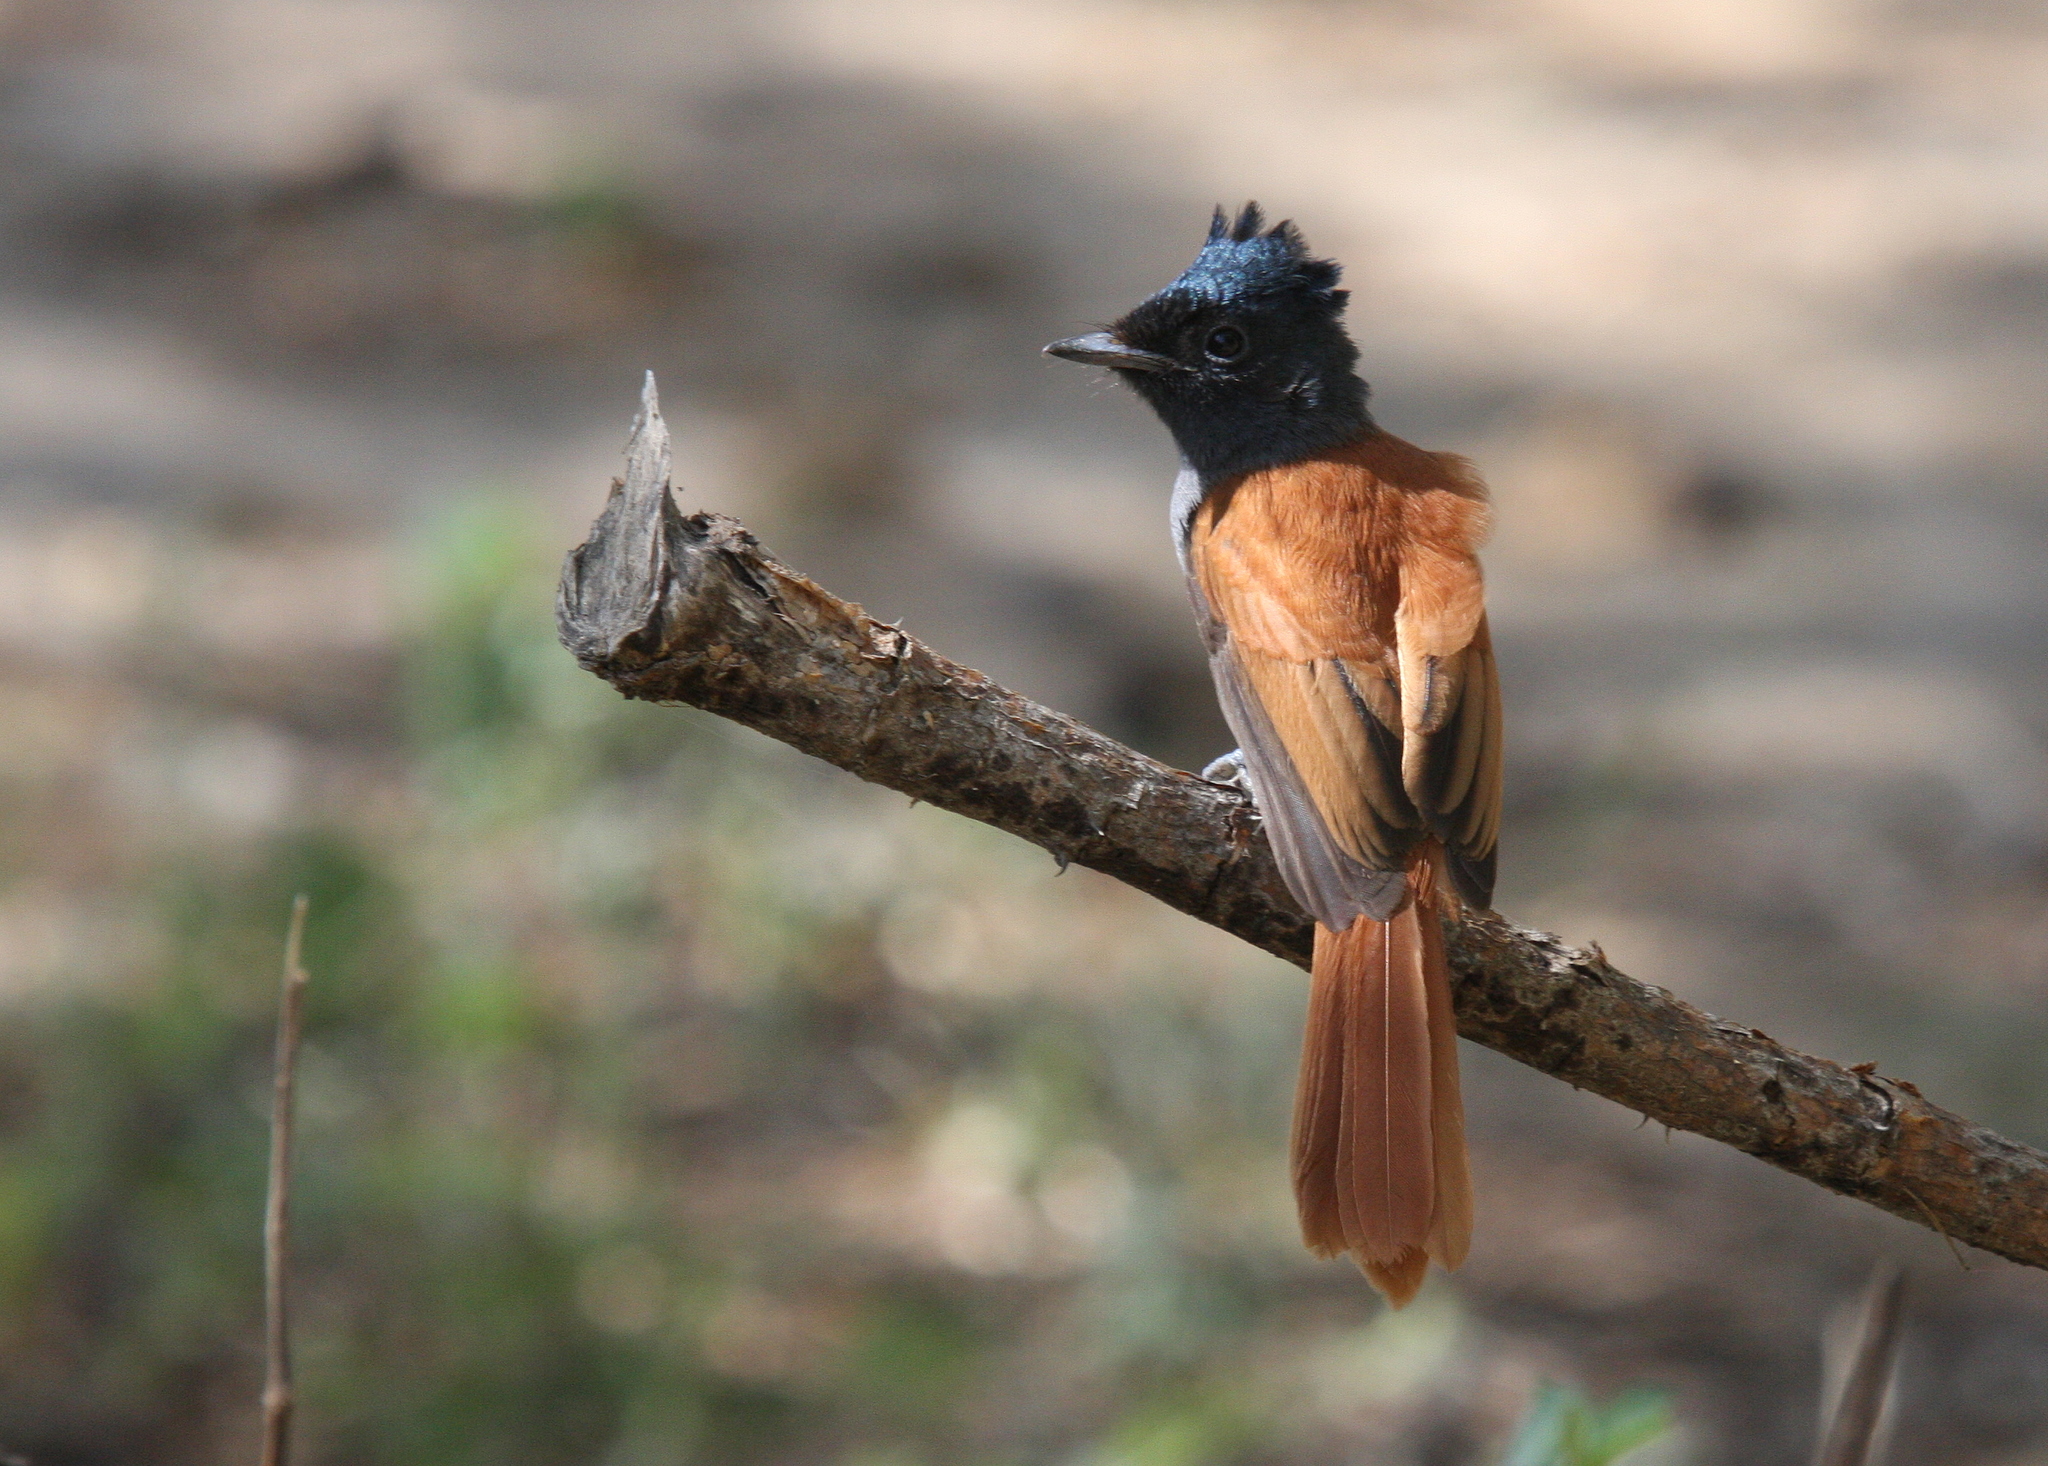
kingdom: Animalia
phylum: Chordata
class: Aves
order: Passeriformes
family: Monarchidae
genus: Terpsiphone
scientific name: Terpsiphone viridis
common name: African paradise flycatcher
